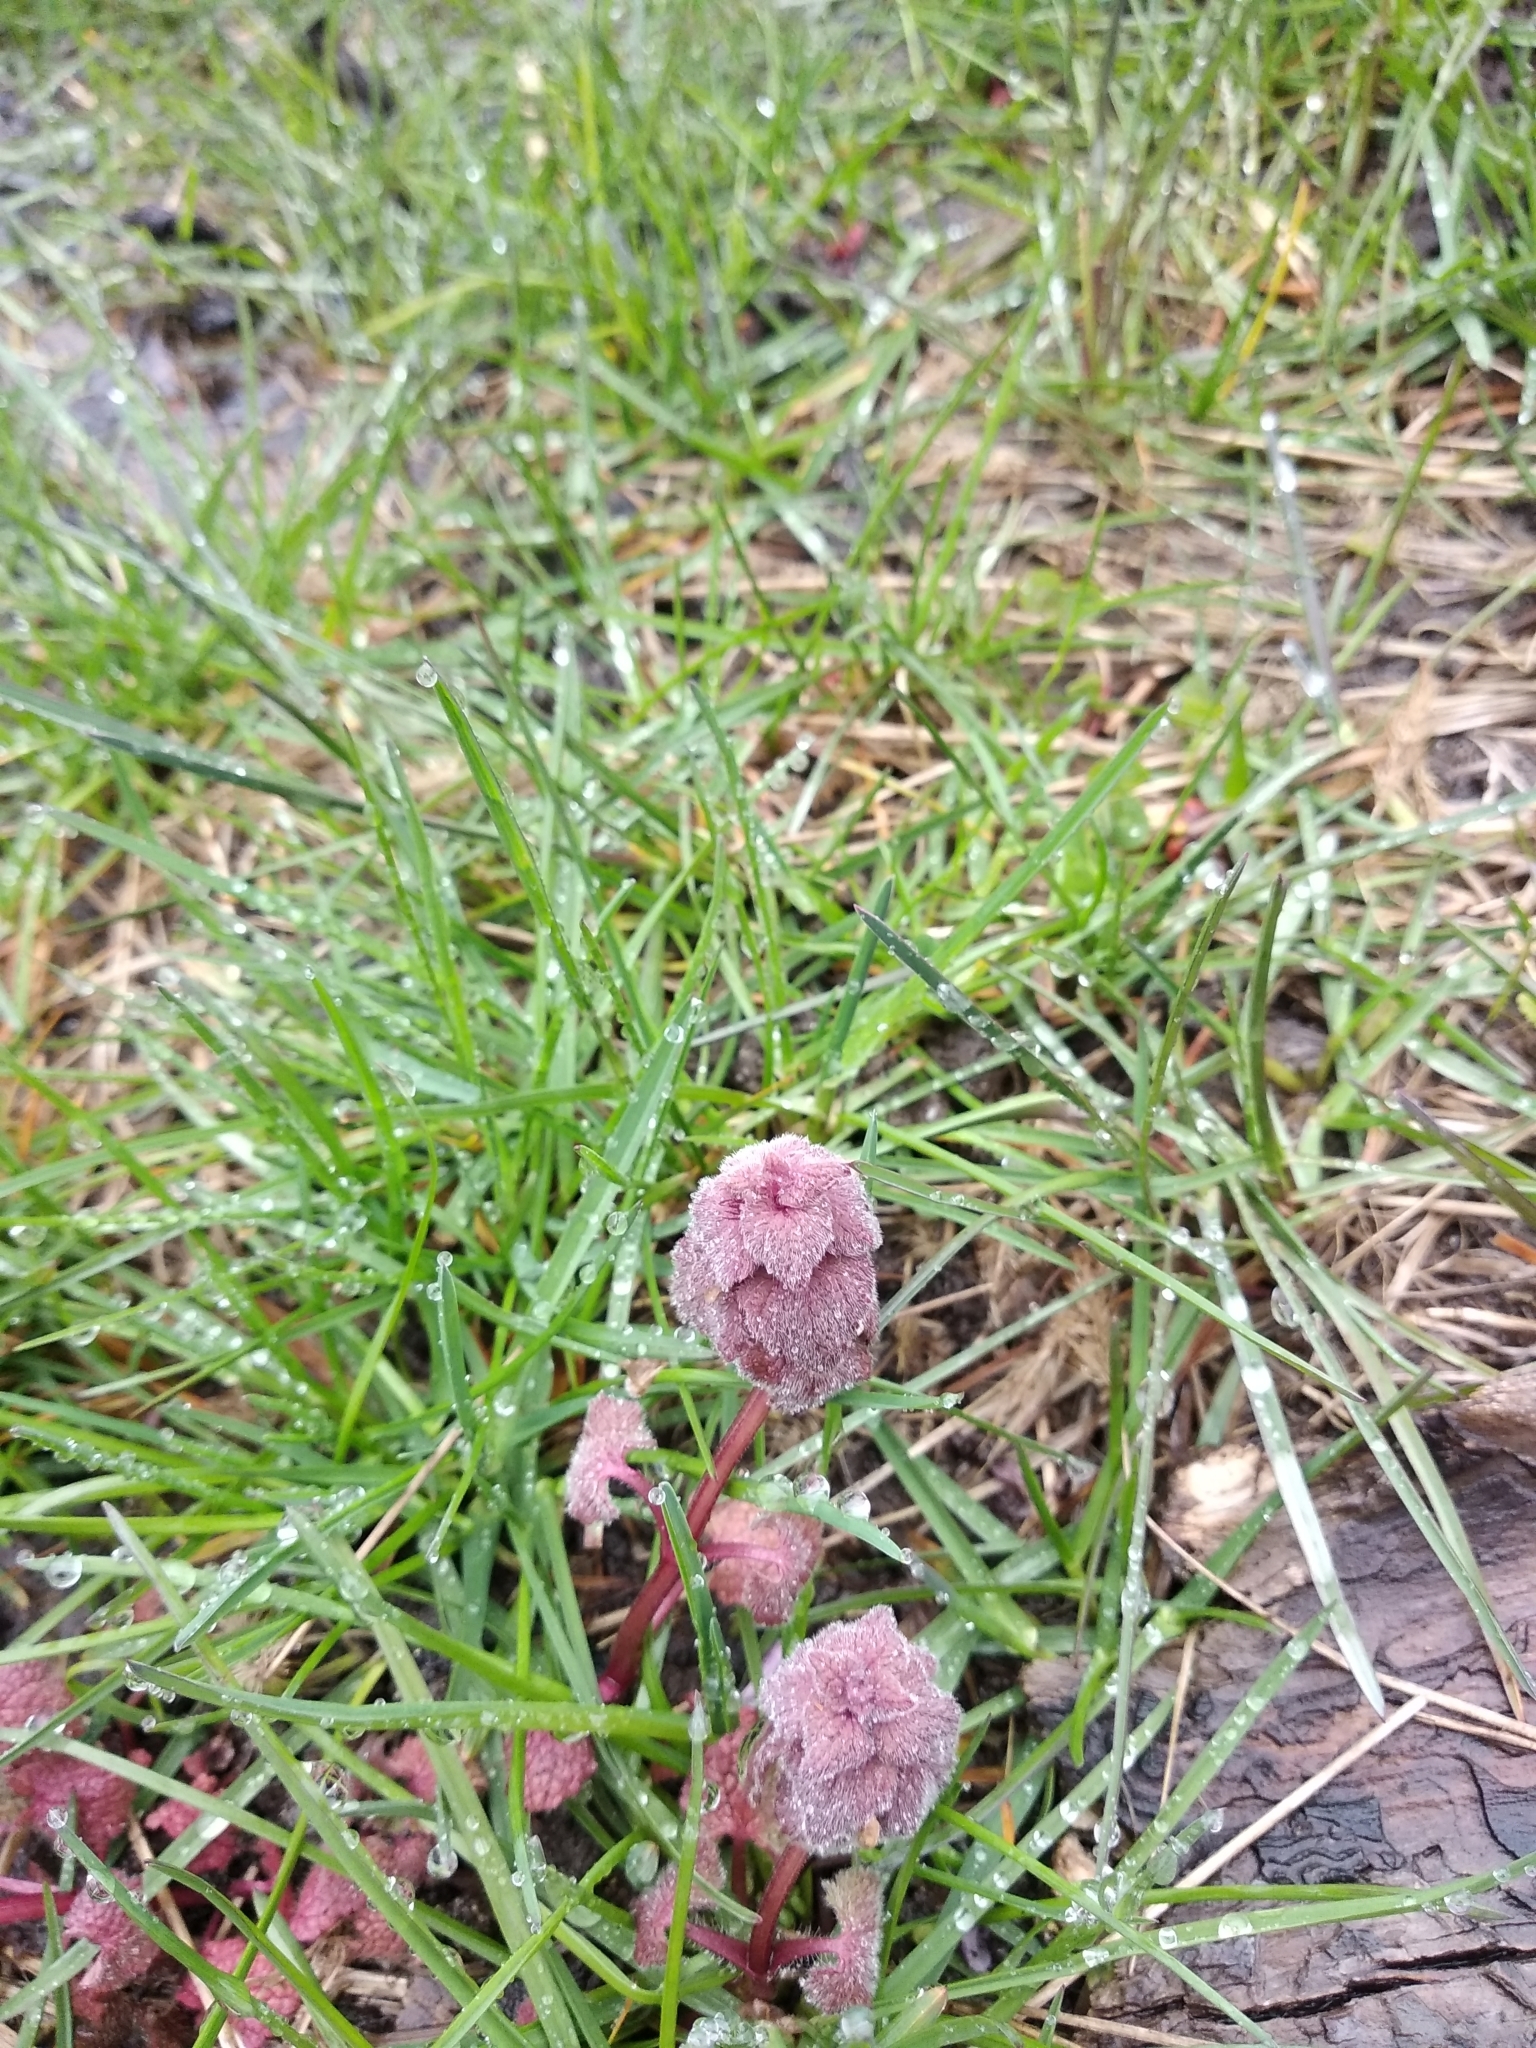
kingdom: Plantae
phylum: Tracheophyta
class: Magnoliopsida
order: Lamiales
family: Lamiaceae
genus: Lamium
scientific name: Lamium purpureum
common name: Red dead-nettle
